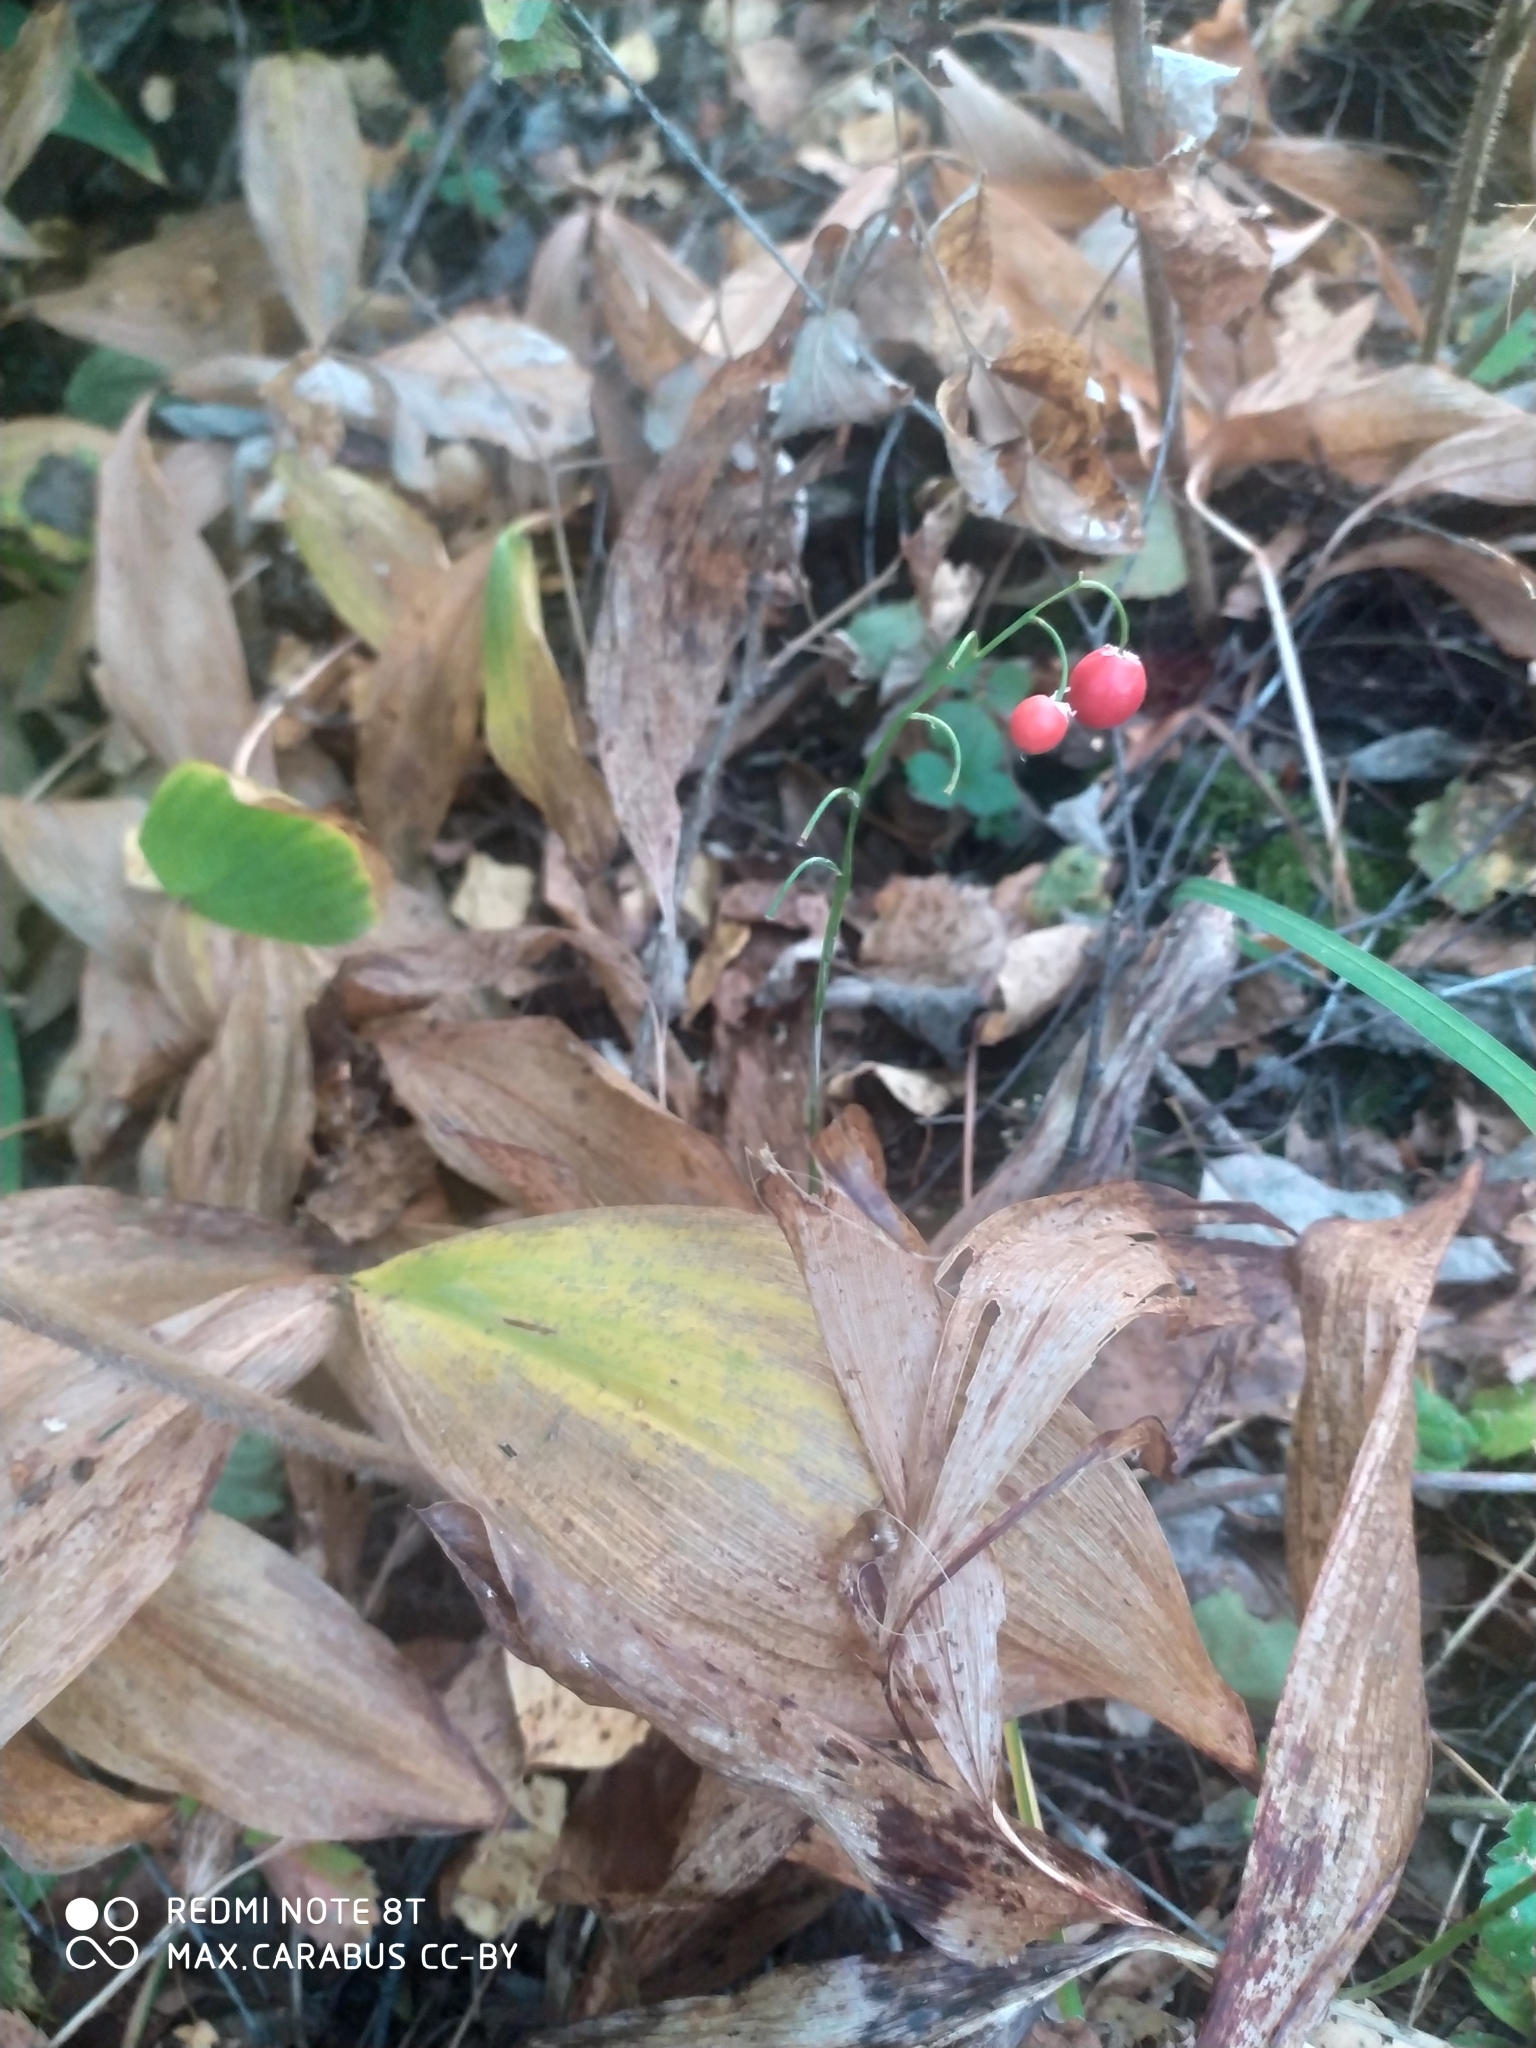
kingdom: Plantae
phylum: Tracheophyta
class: Liliopsida
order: Asparagales
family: Asparagaceae
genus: Convallaria
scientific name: Convallaria majalis
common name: Lily-of-the-valley
